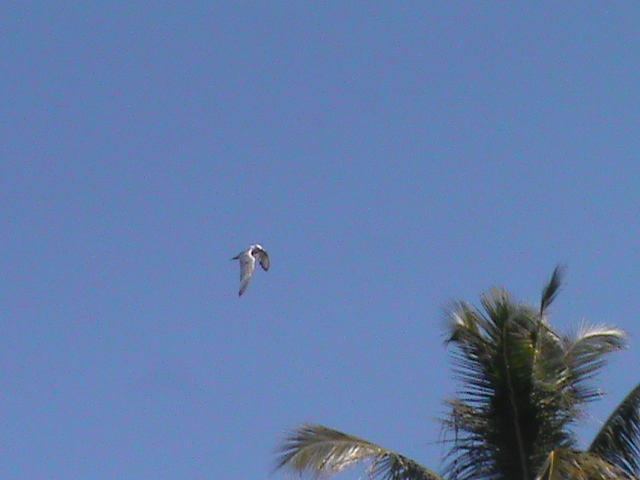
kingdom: Animalia
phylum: Chordata
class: Aves
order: Charadriiformes
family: Laridae
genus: Chlidonias
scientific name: Chlidonias hybrida
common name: Whiskered tern
